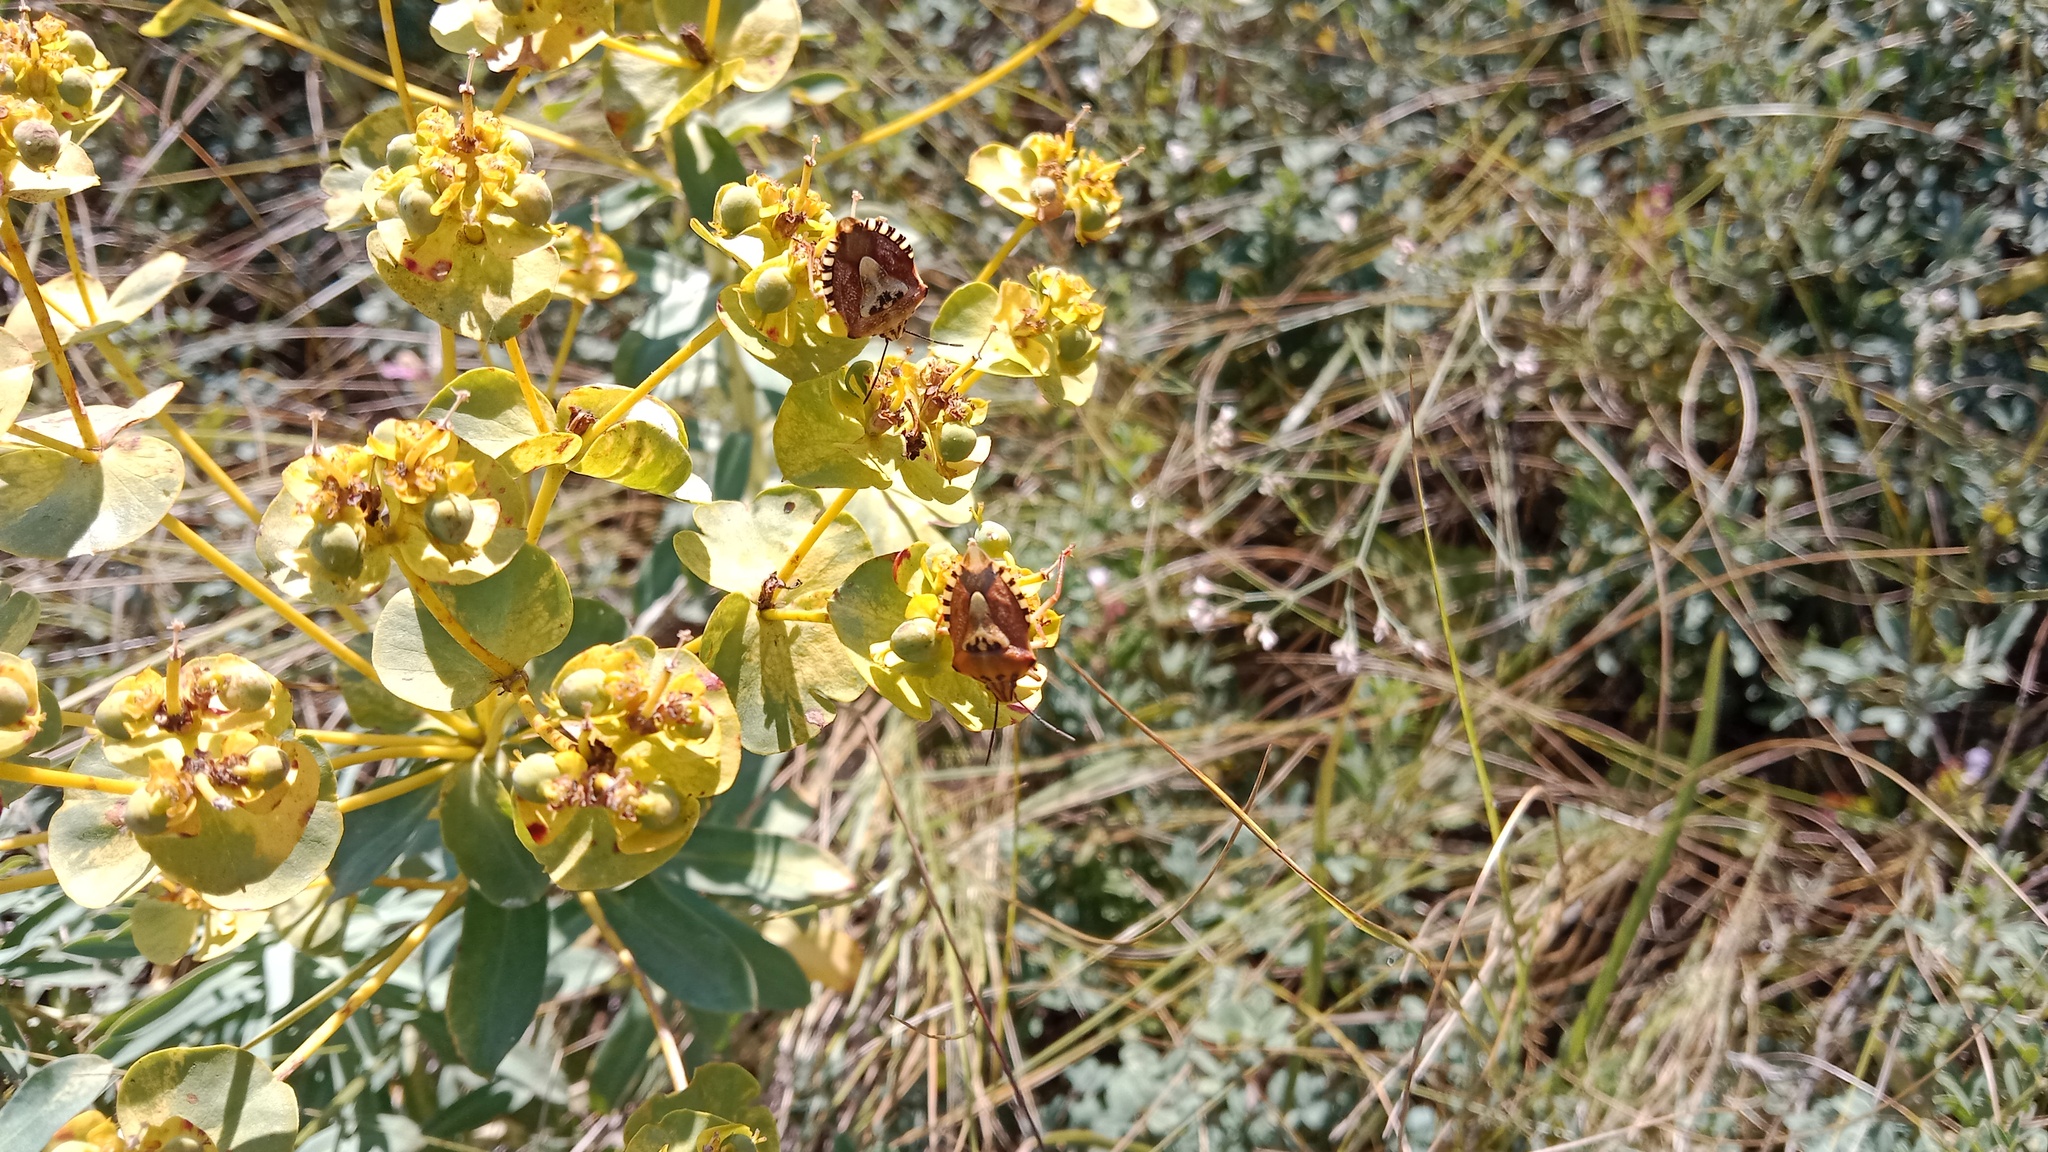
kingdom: Plantae
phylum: Tracheophyta
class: Magnoliopsida
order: Malpighiales
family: Euphorbiaceae
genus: Euphorbia
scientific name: Euphorbia stepposa
